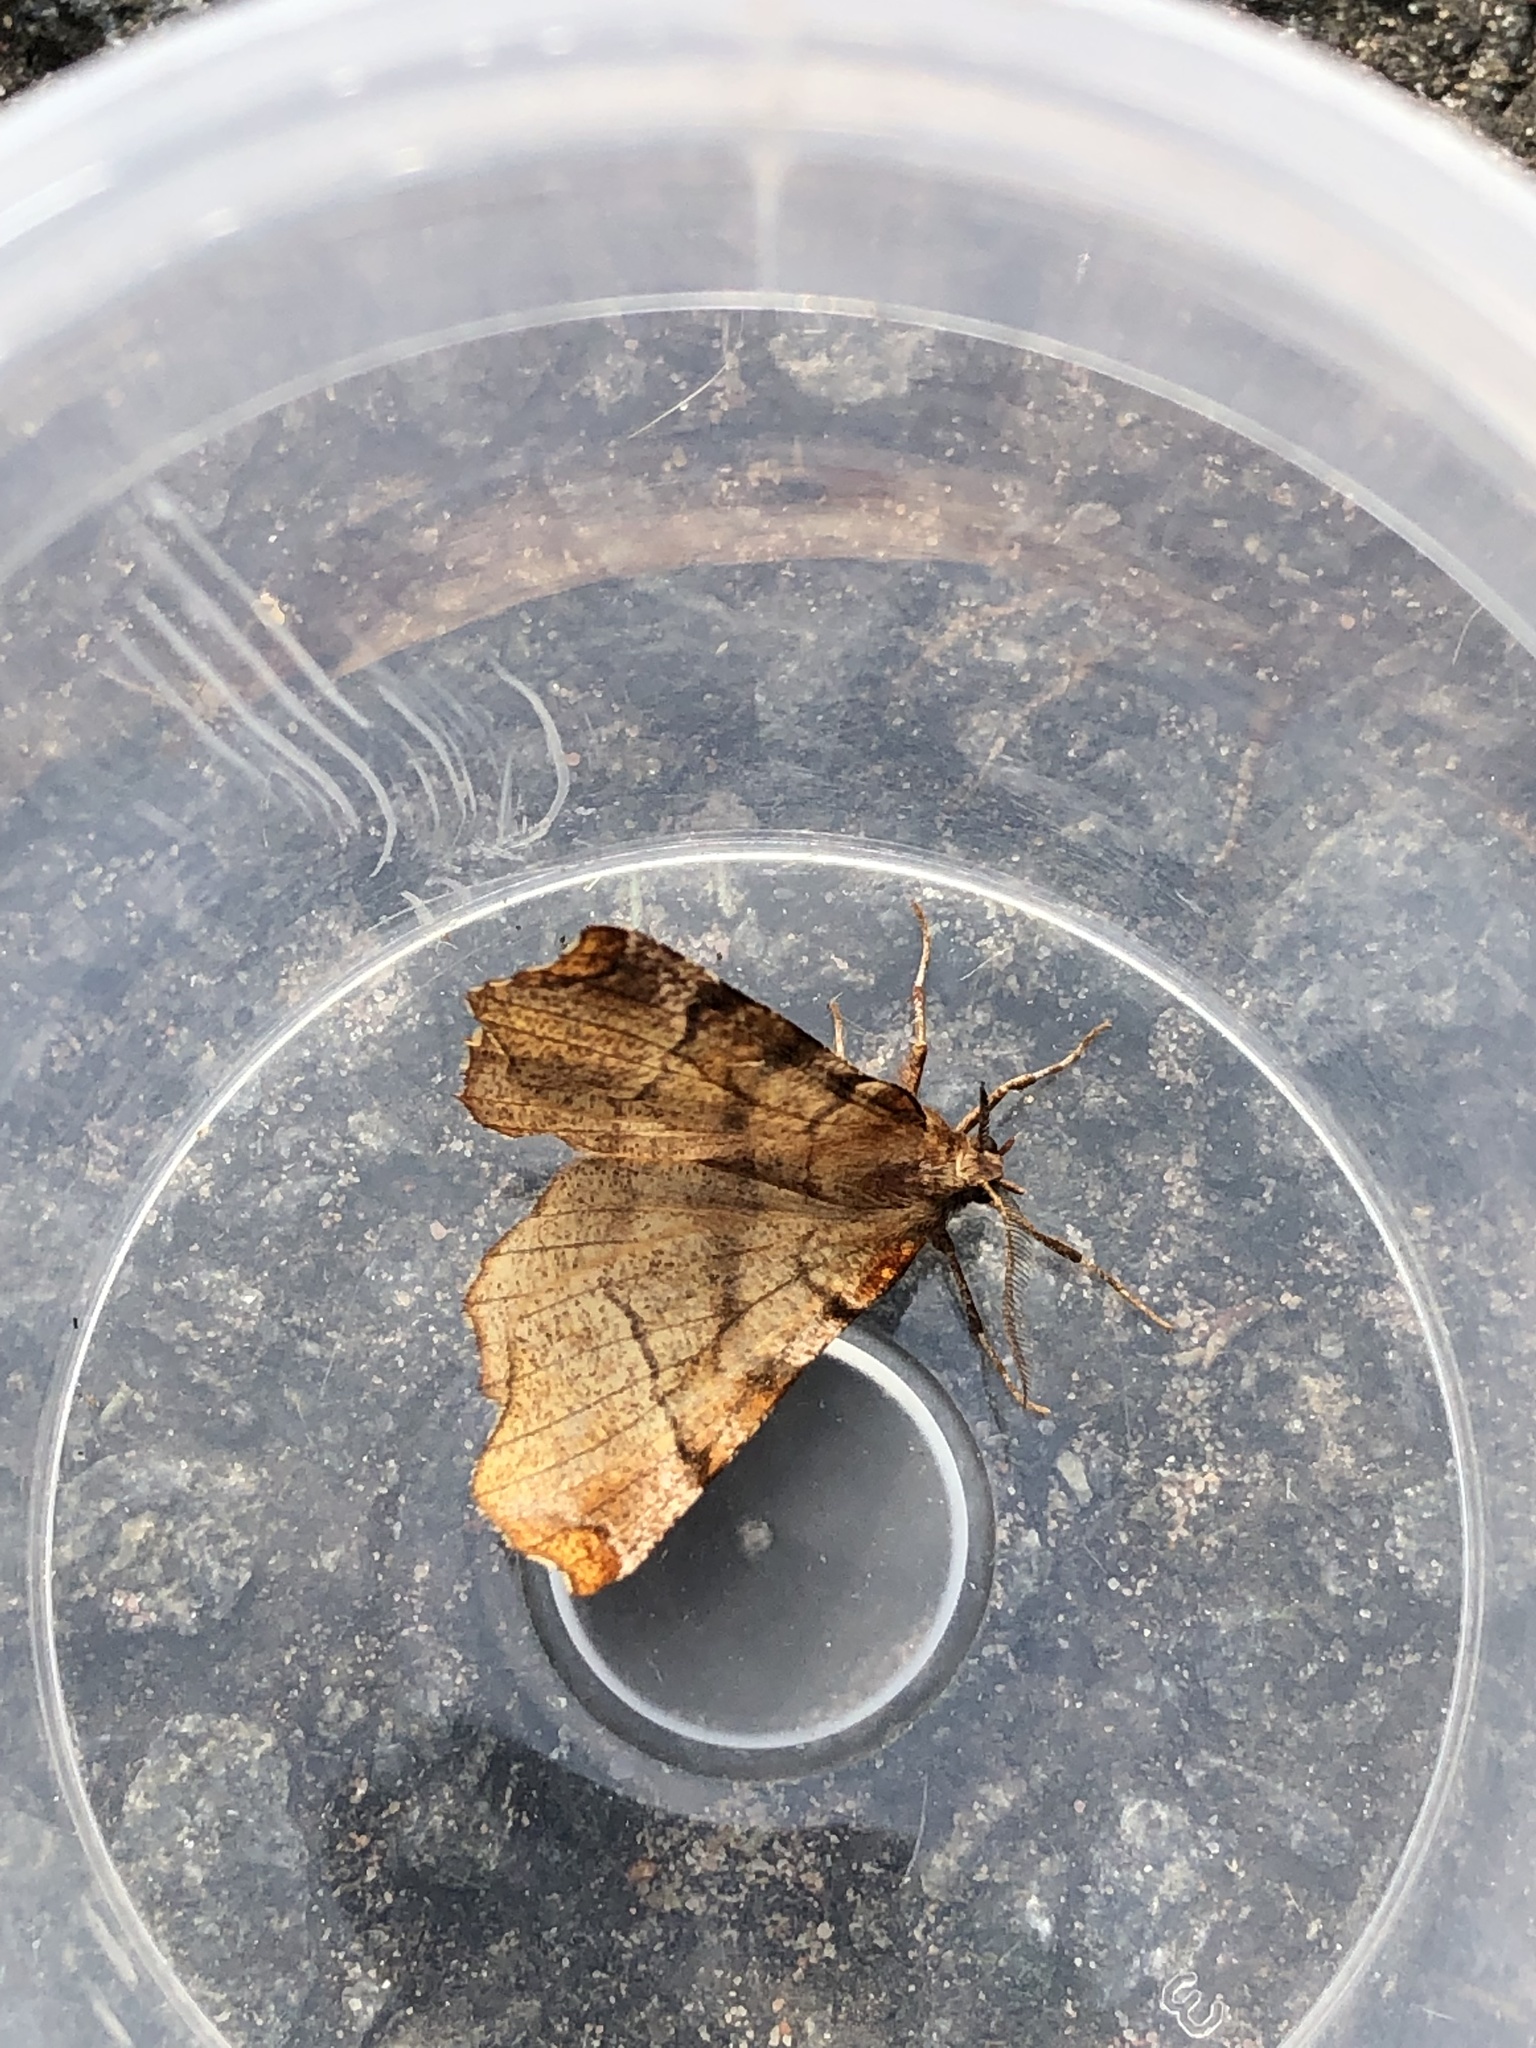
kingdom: Animalia
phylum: Arthropoda
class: Insecta
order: Lepidoptera
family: Geometridae
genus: Selenia
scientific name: Selenia dentaria
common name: Early thorn
